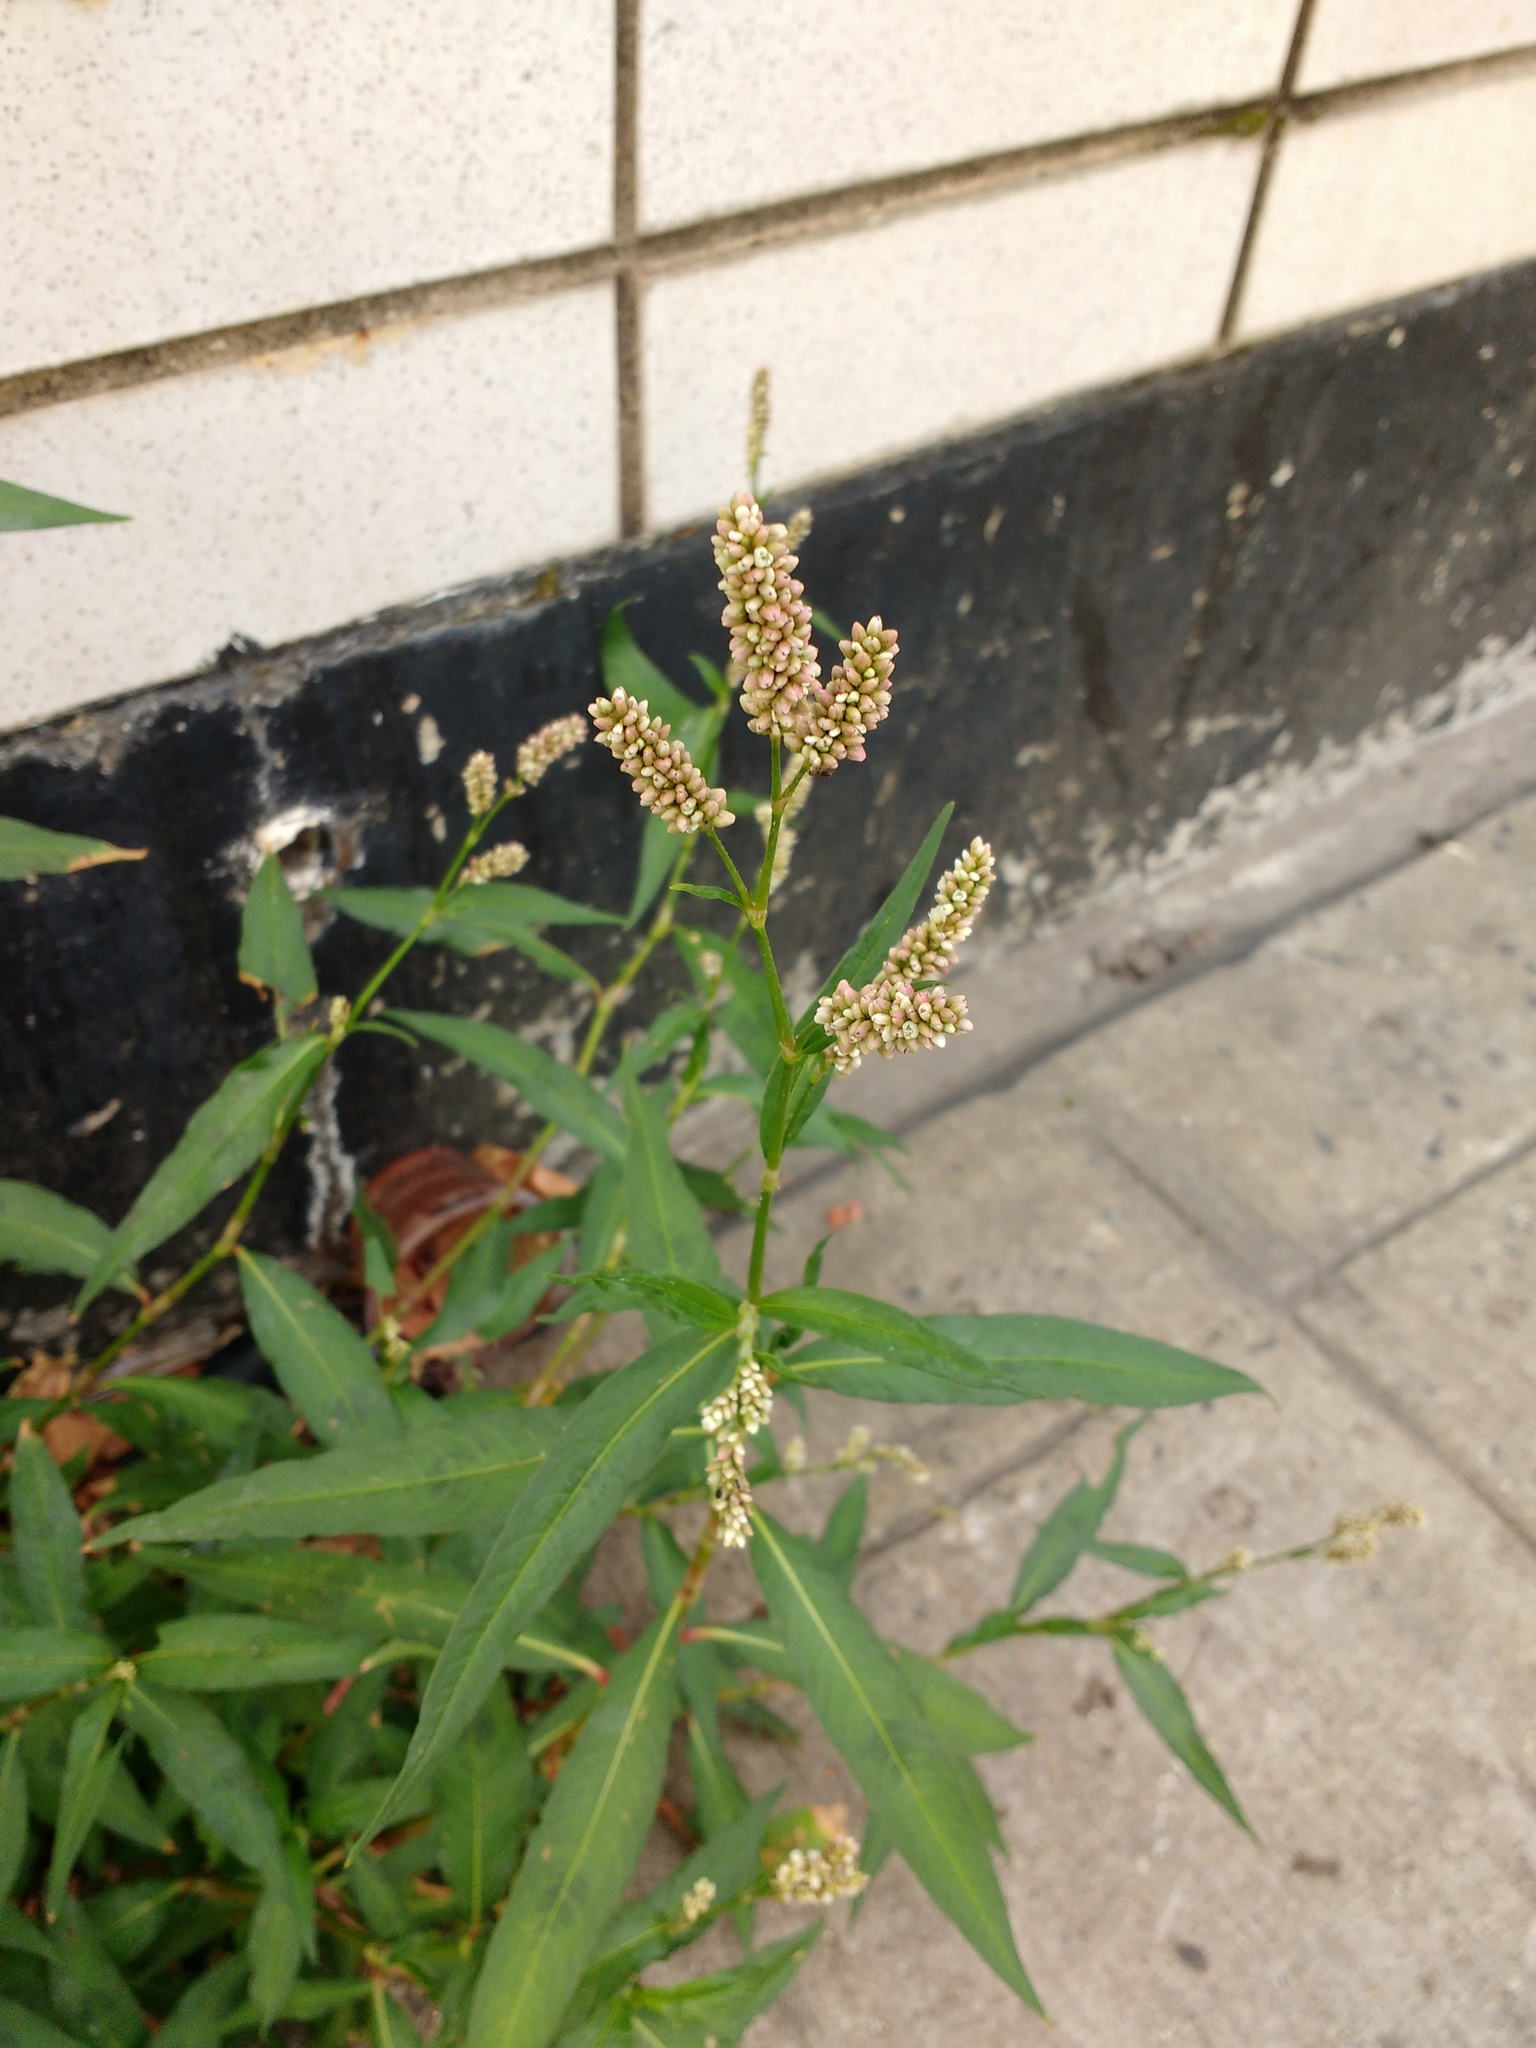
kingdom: Plantae
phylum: Tracheophyta
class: Magnoliopsida
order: Caryophyllales
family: Polygonaceae
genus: Persicaria
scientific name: Persicaria maculosa
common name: Redshank
